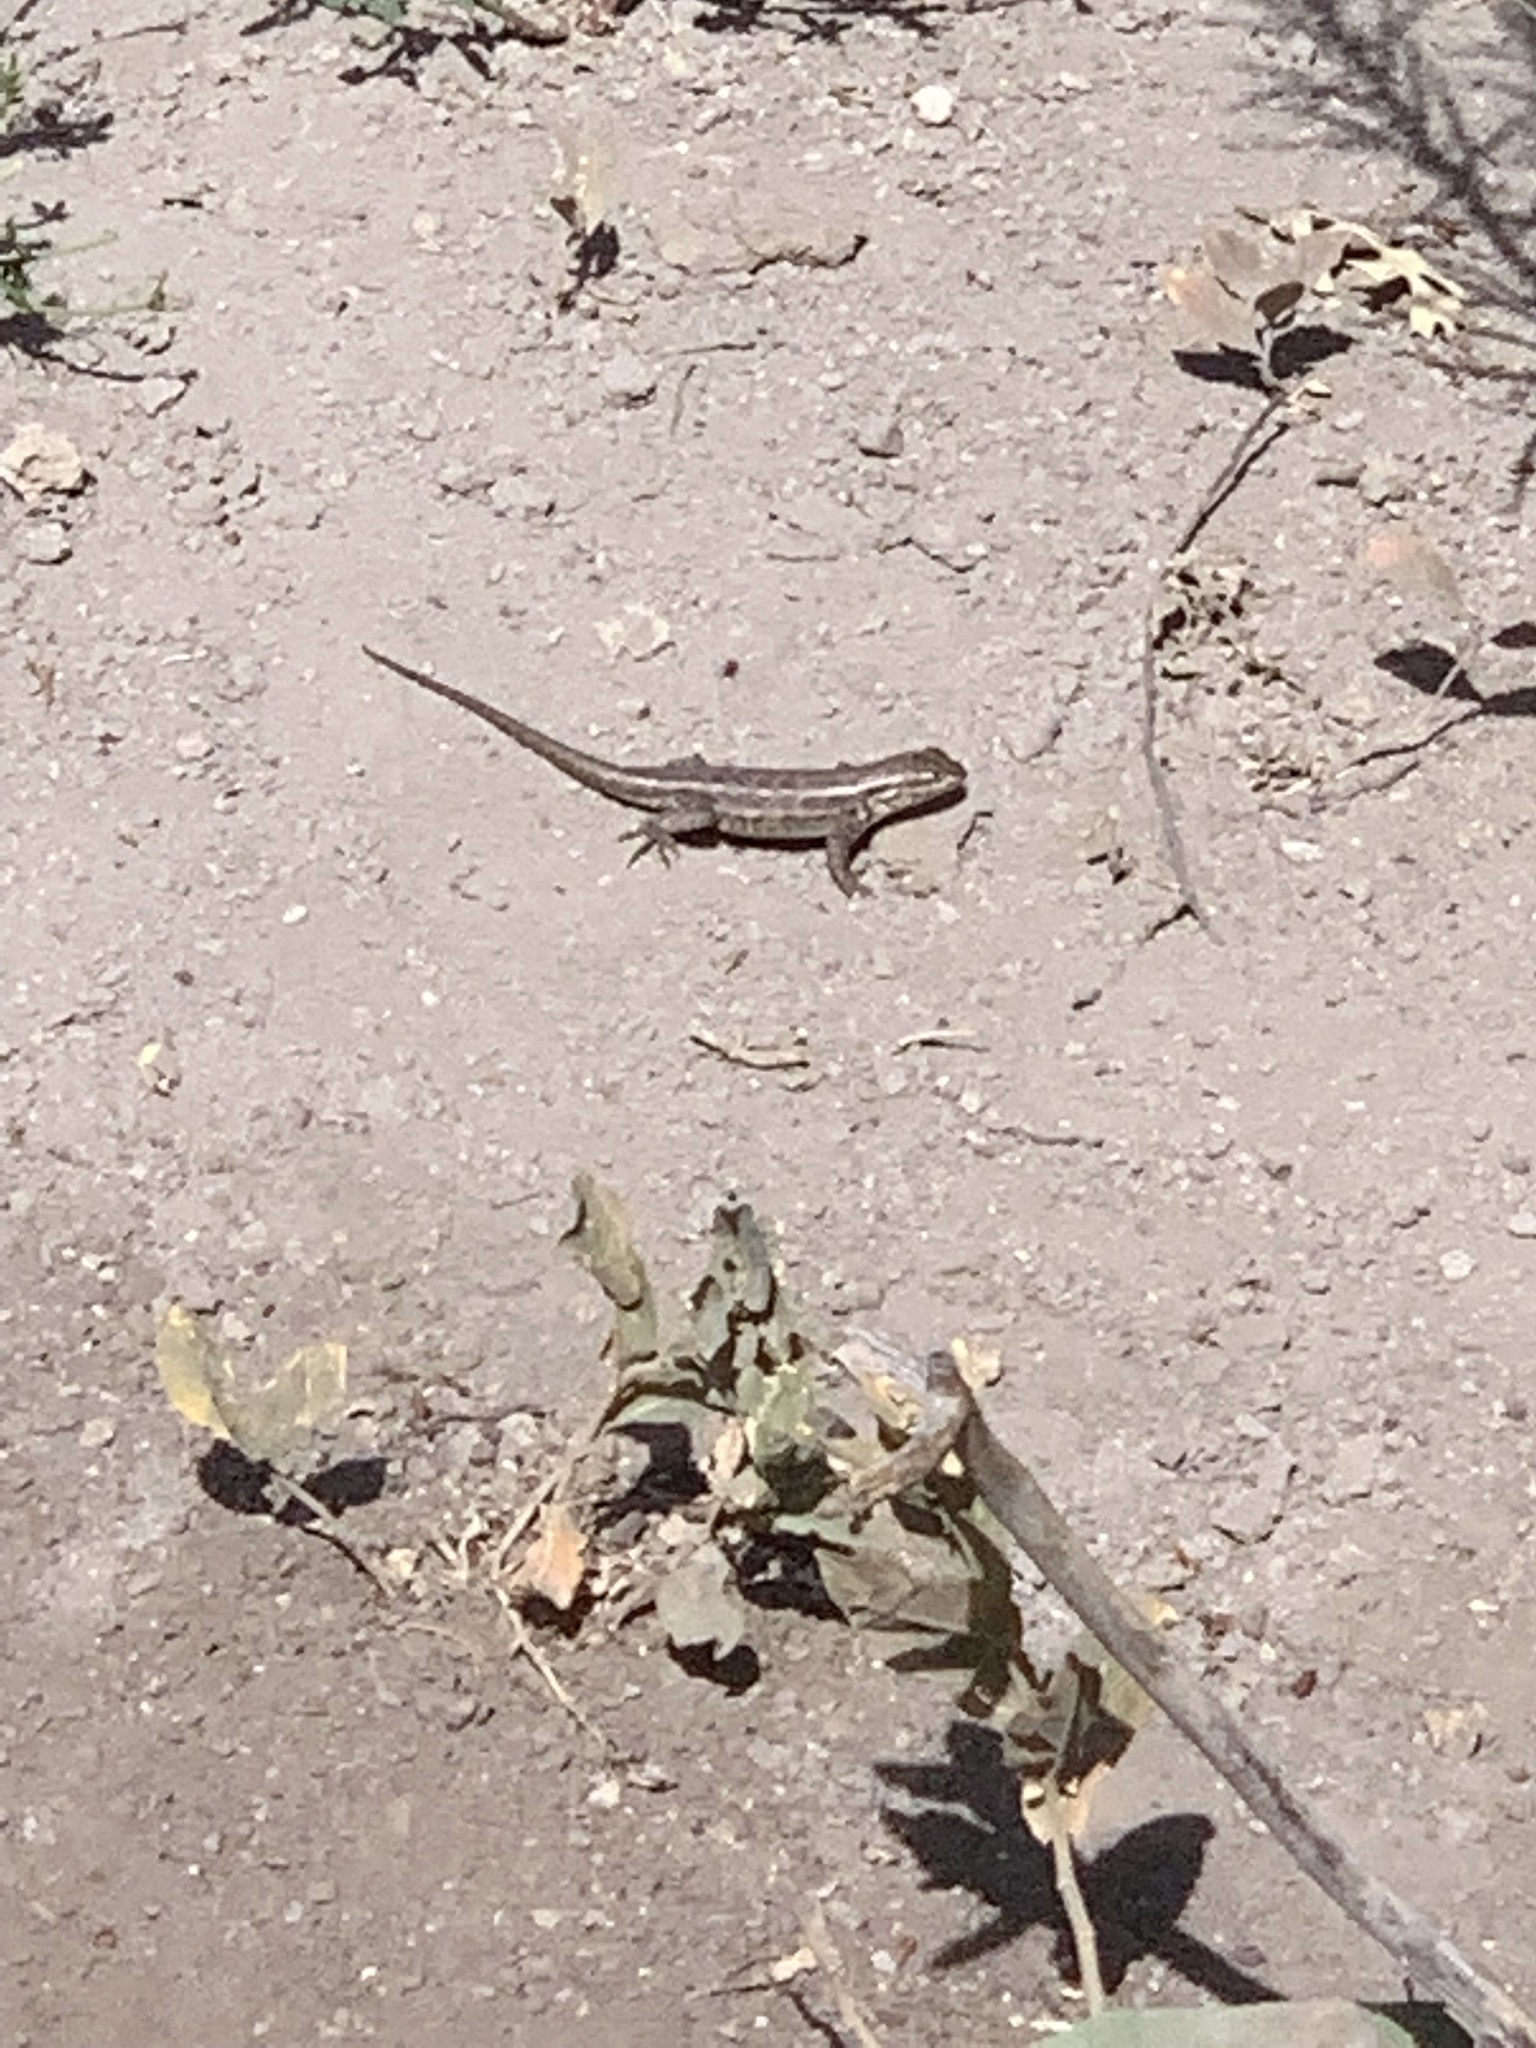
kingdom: Animalia
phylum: Chordata
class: Squamata
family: Phrynosomatidae
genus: Sceloporus
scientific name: Sceloporus graciosus
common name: Sagebrush lizard
